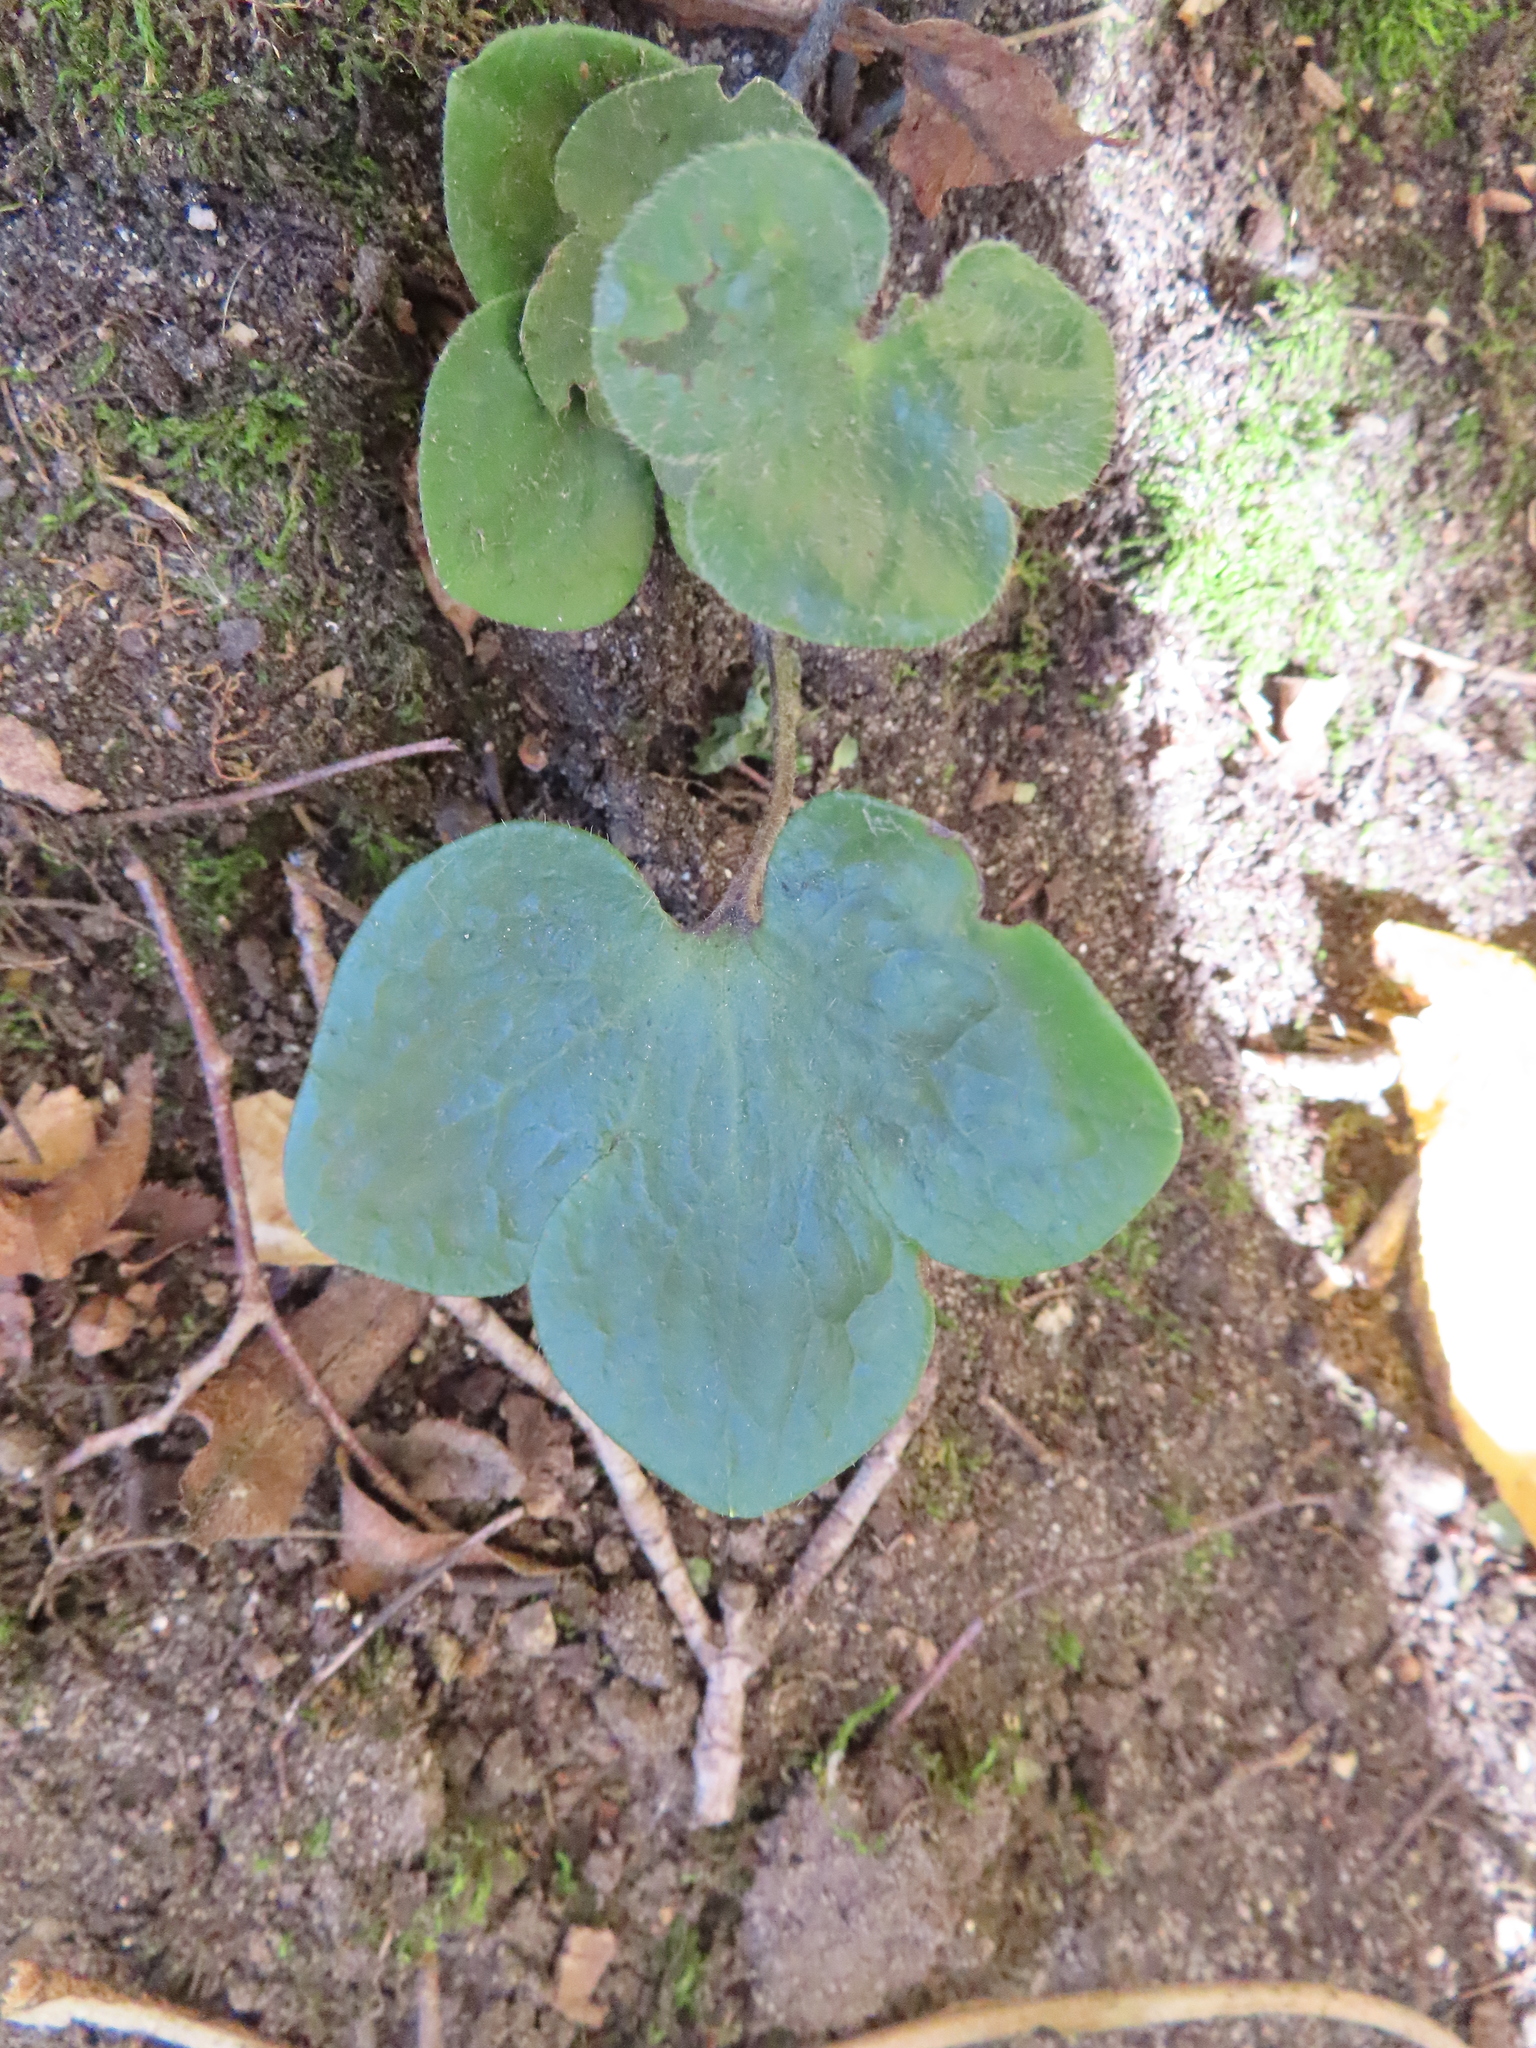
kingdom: Plantae
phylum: Tracheophyta
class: Magnoliopsida
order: Ranunculales
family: Ranunculaceae
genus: Hepatica
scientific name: Hepatica americana
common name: American hepatica
